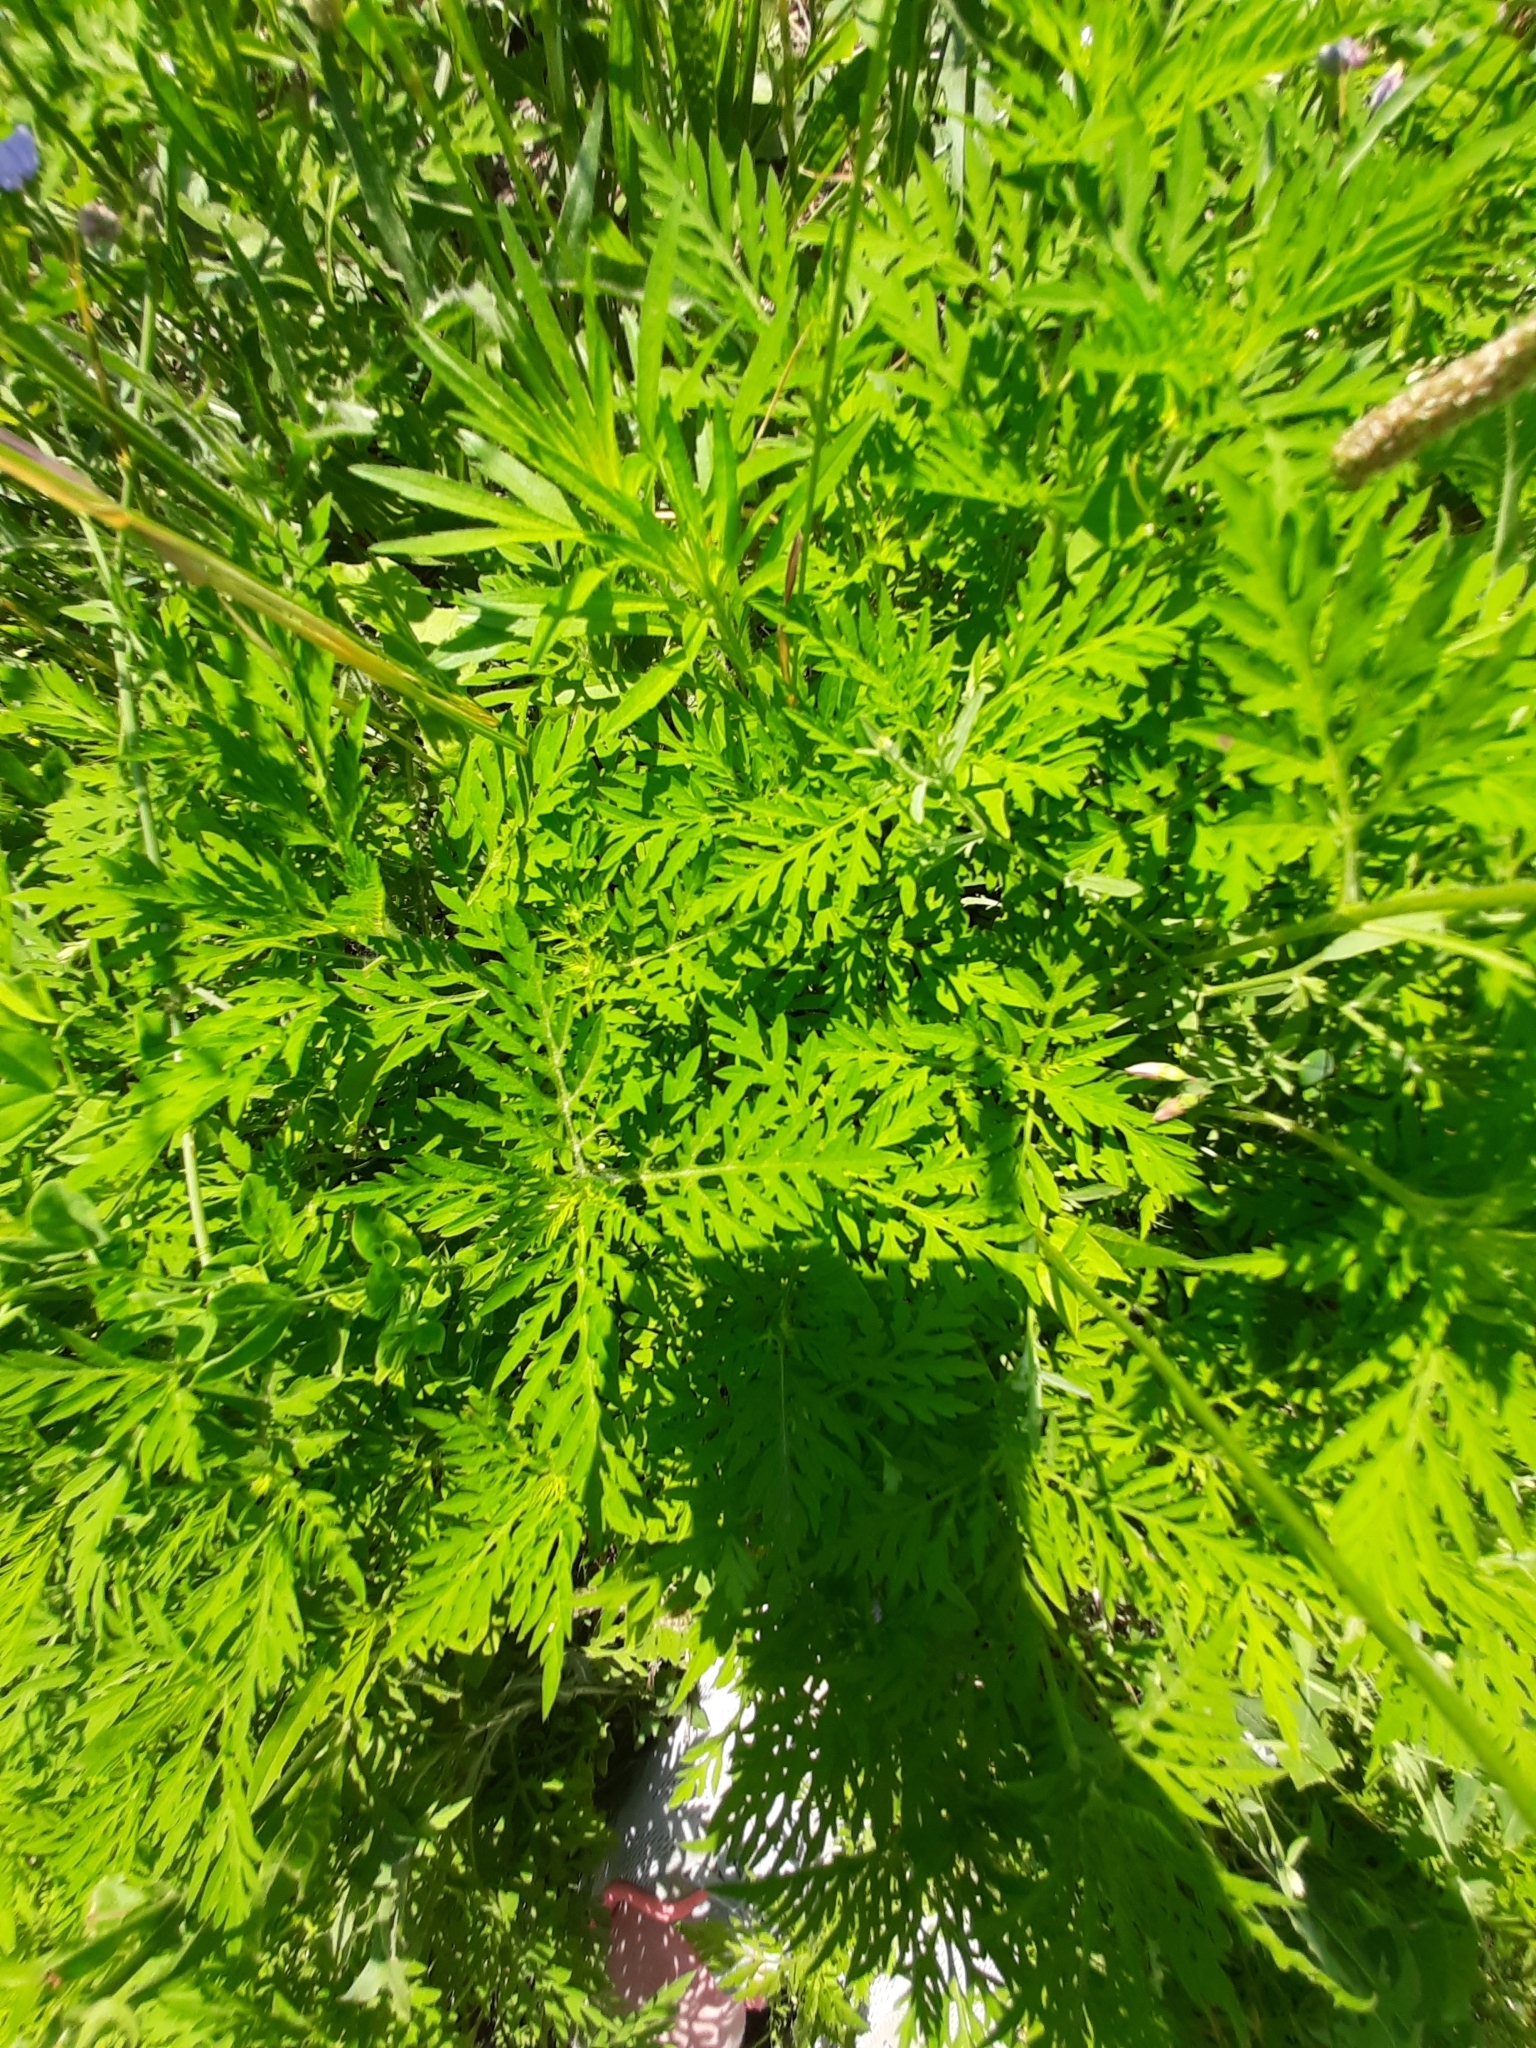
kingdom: Plantae
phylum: Tracheophyta
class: Magnoliopsida
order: Asterales
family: Asteraceae
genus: Ambrosia
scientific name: Ambrosia artemisiifolia
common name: Annual ragweed
